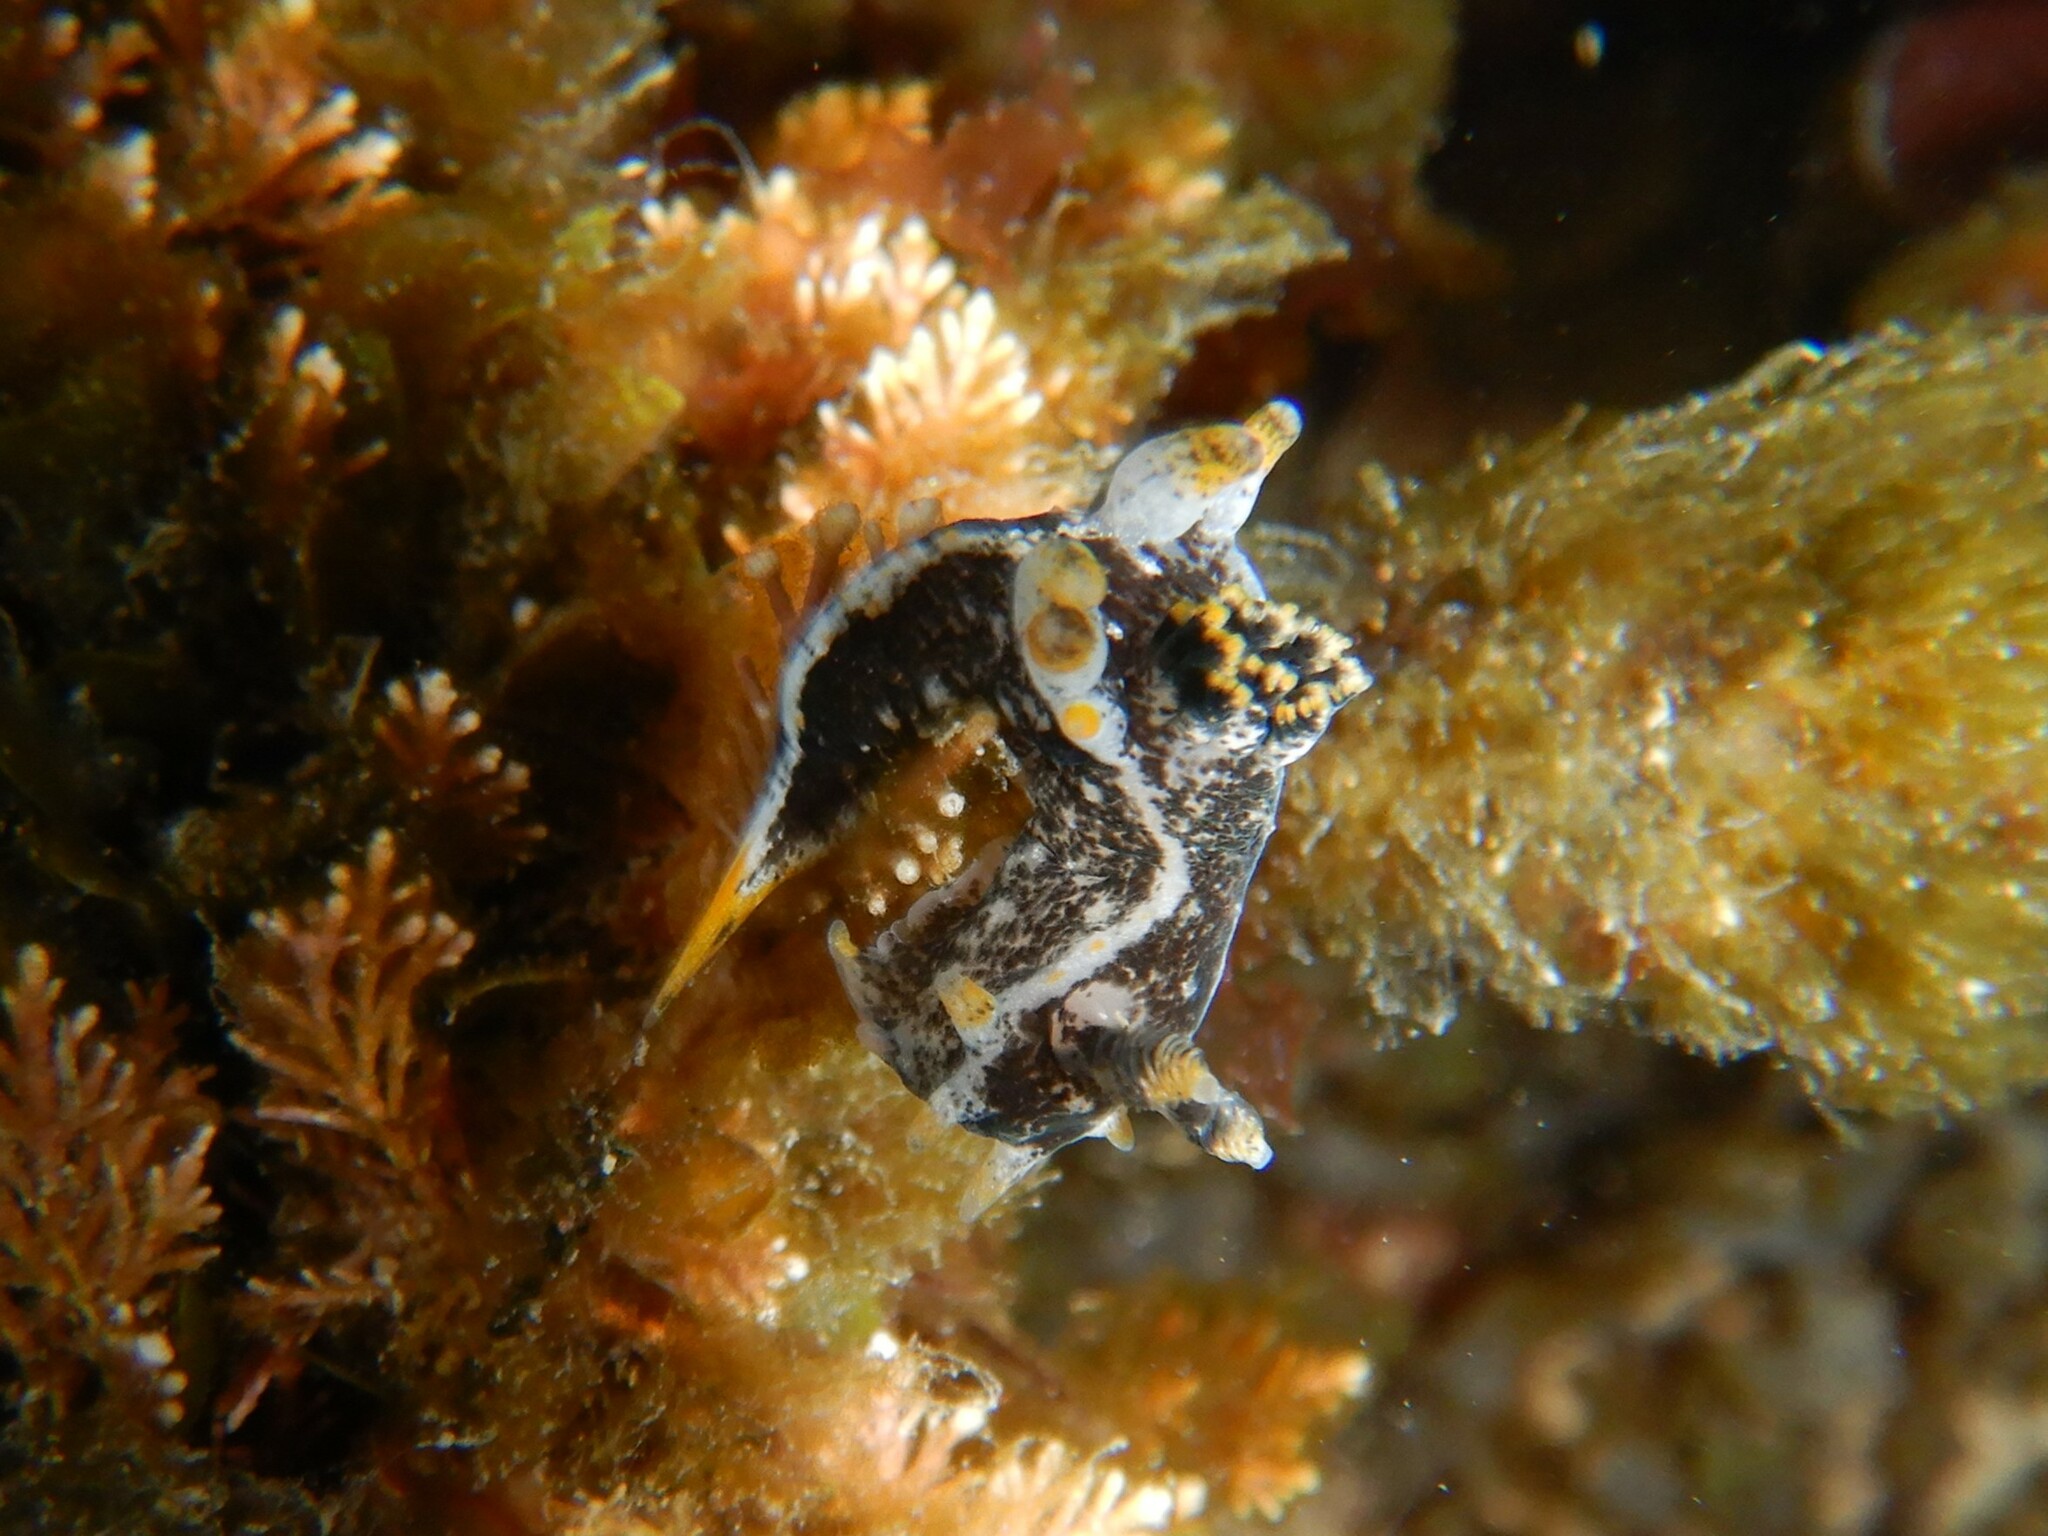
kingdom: Animalia
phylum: Mollusca
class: Gastropoda
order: Nudibranchia
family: Polyceridae
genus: Polycera
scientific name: Polycera hedgpethi
